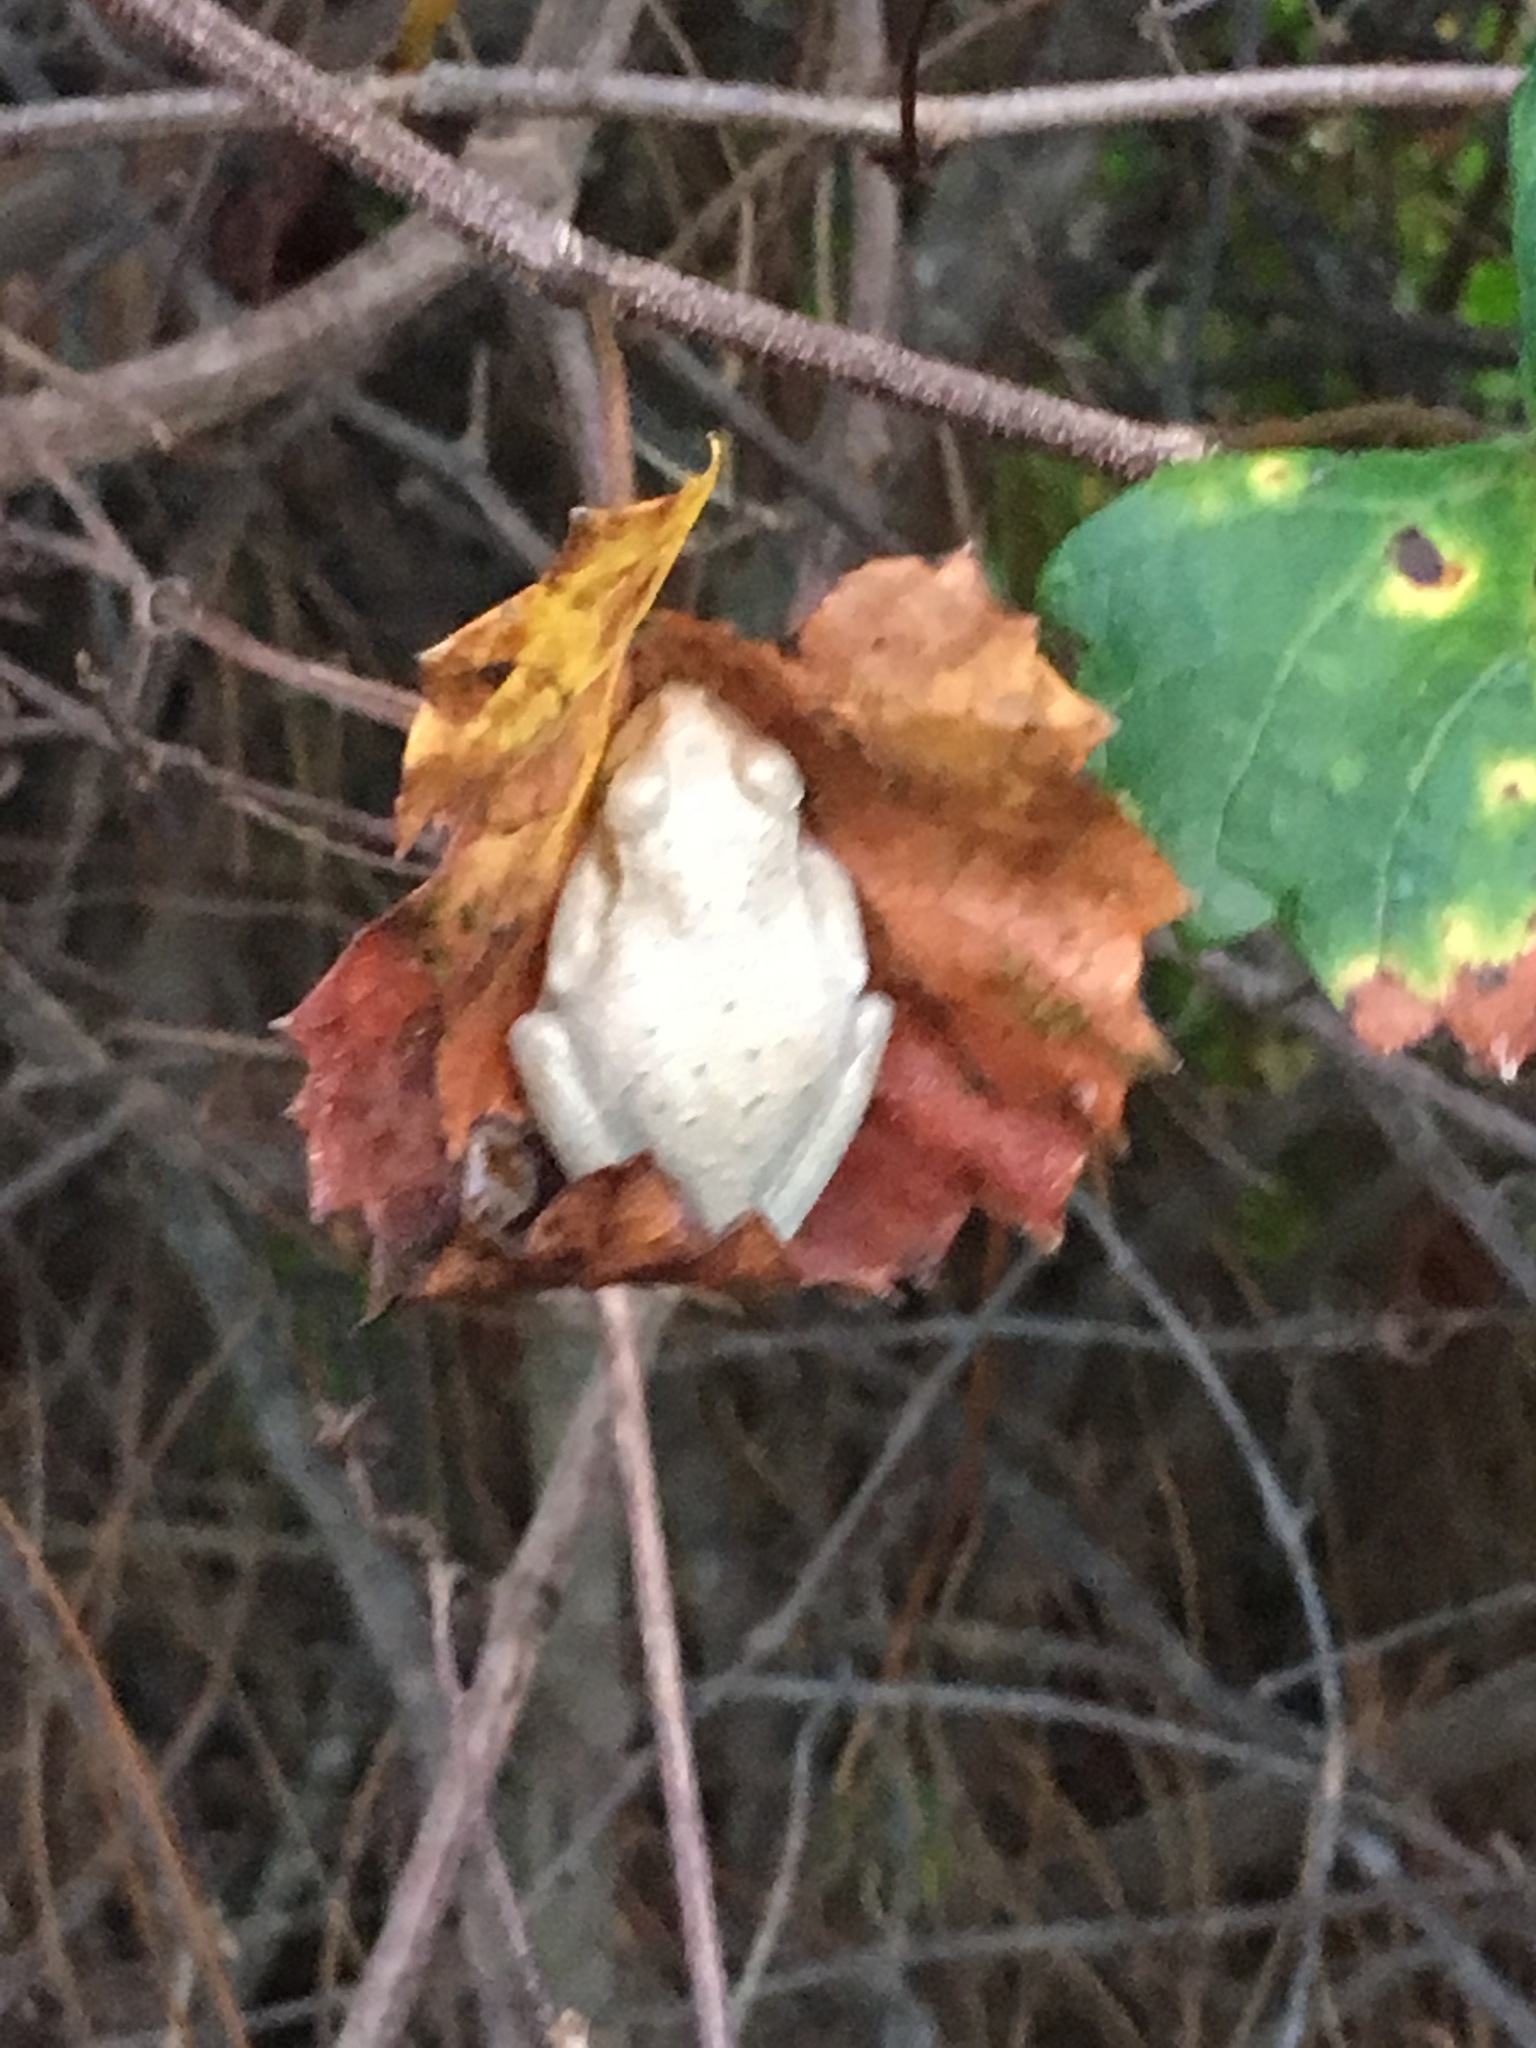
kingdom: Animalia
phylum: Chordata
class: Amphibia
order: Anura
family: Hylidae
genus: Osteopilus
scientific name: Osteopilus septentrionalis
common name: Cuban treefrog
